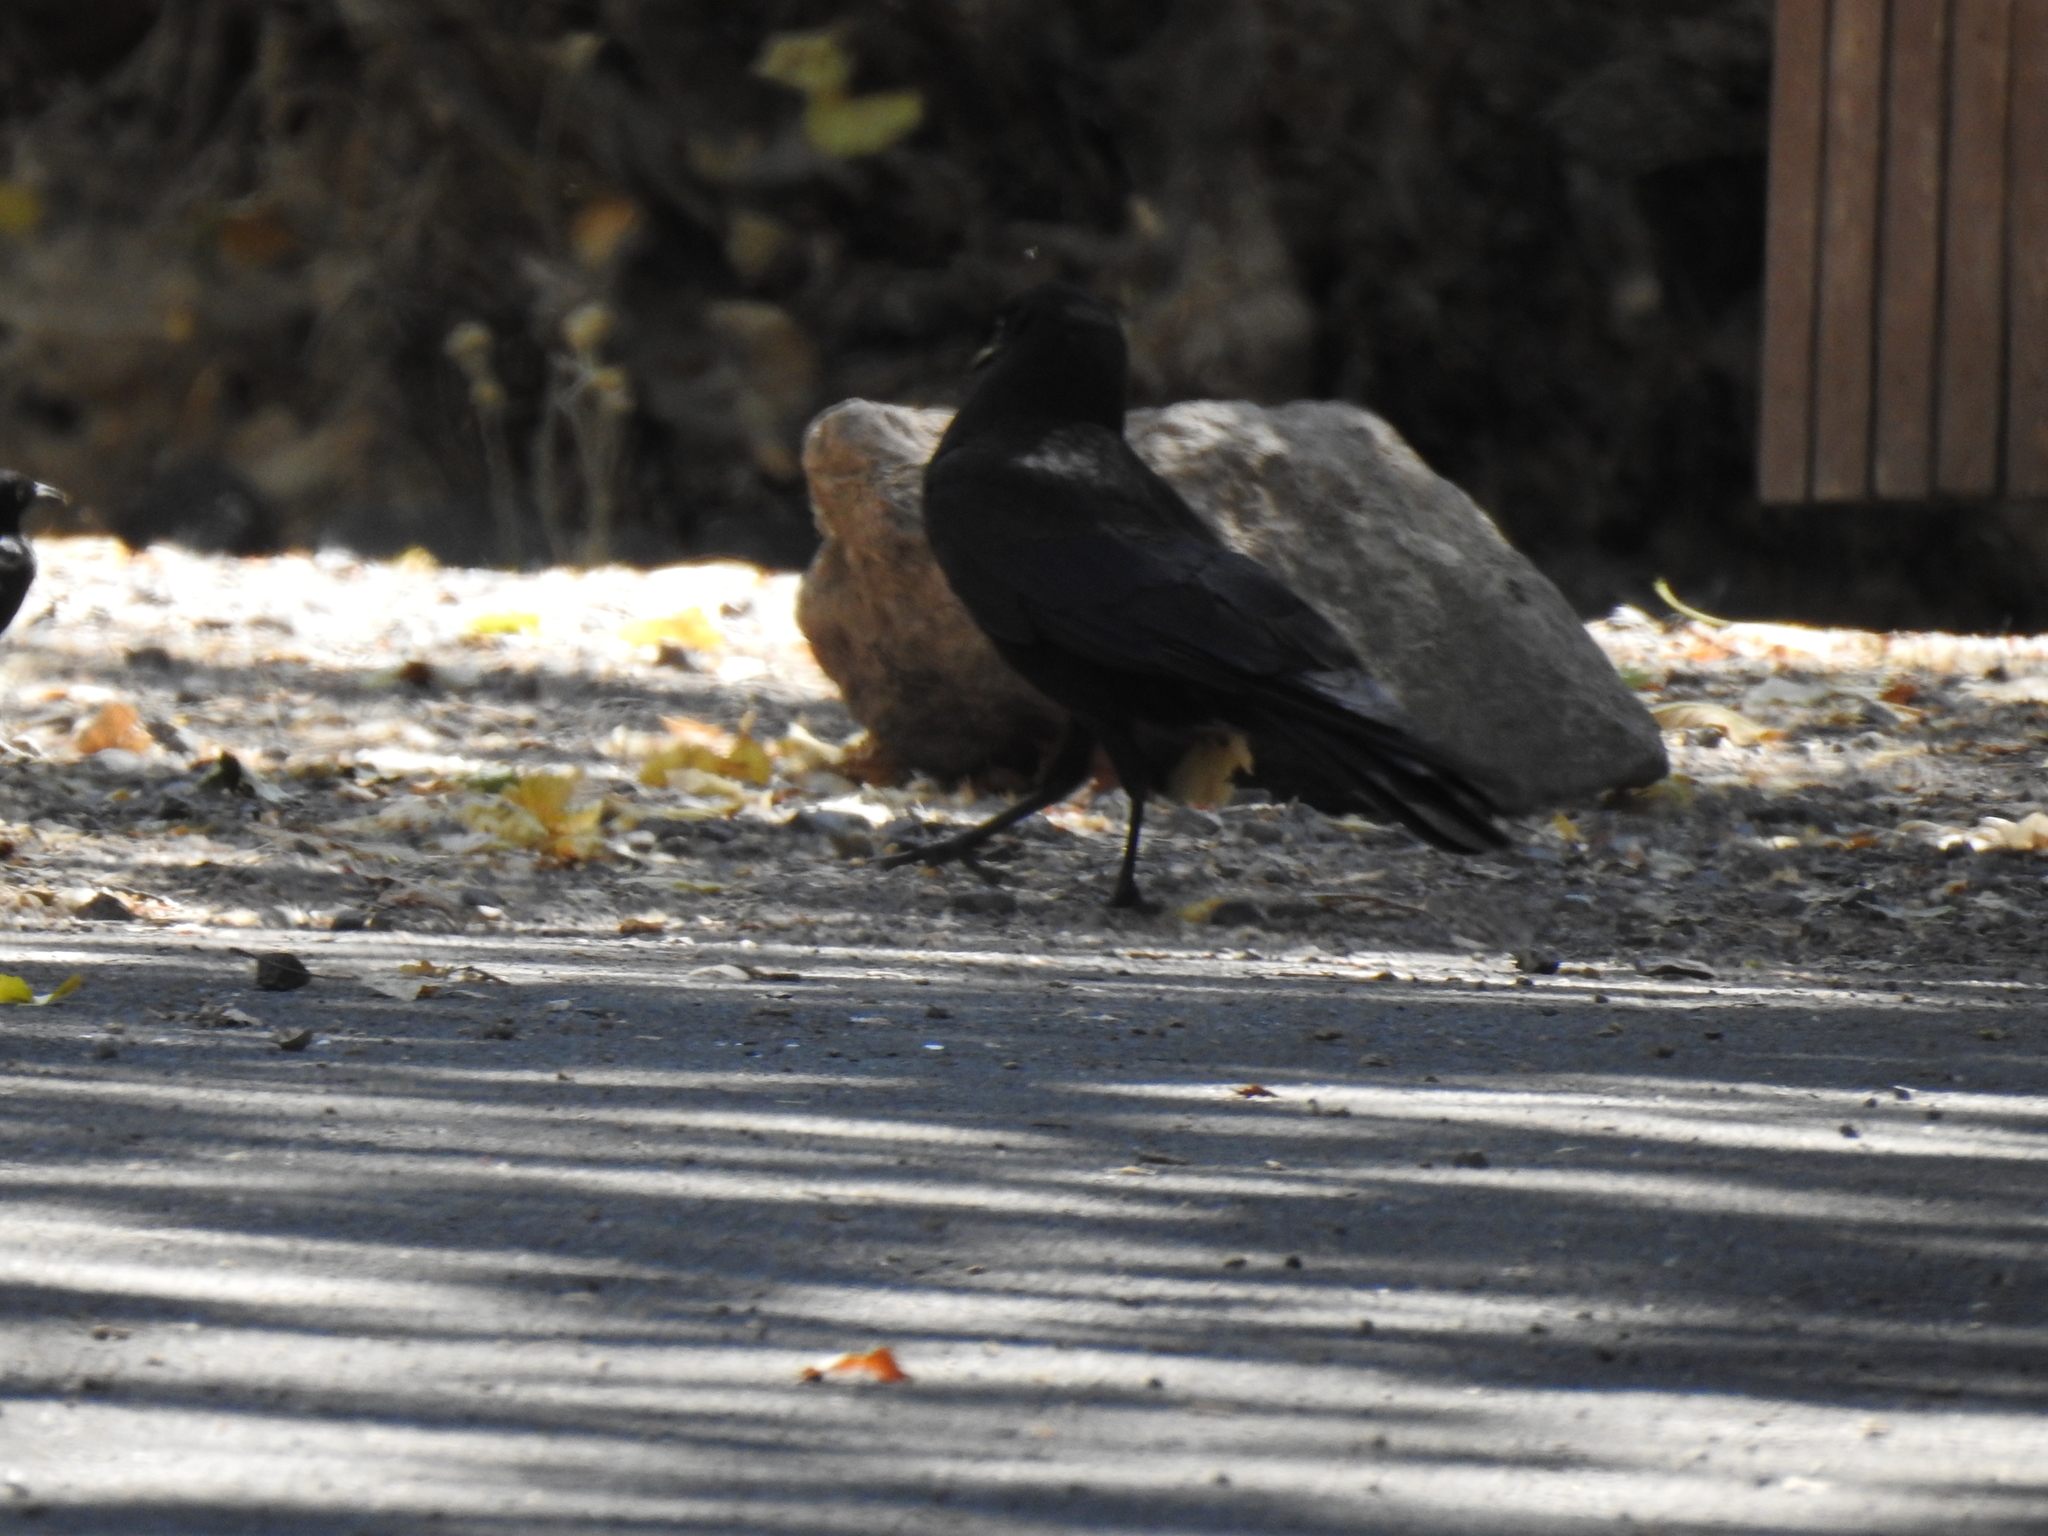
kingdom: Animalia
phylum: Chordata
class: Aves
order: Passeriformes
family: Corvidae
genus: Corvus
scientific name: Corvus brachyrhynchos
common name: American crow
